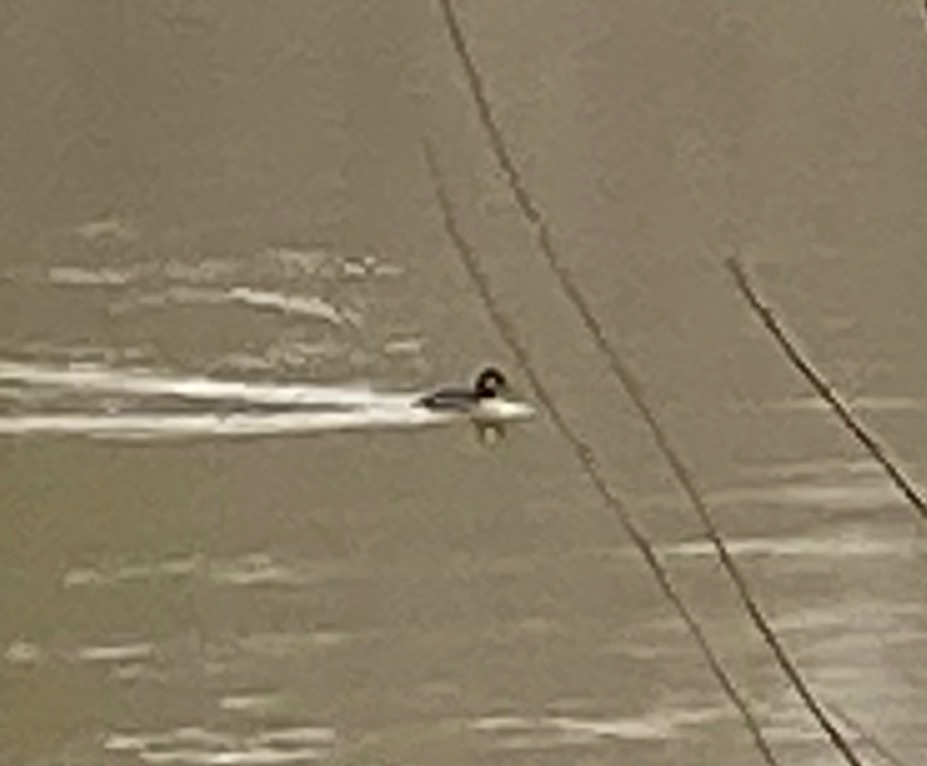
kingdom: Animalia
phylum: Chordata
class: Aves
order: Anseriformes
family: Anatidae
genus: Bucephala
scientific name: Bucephala albeola
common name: Bufflehead
